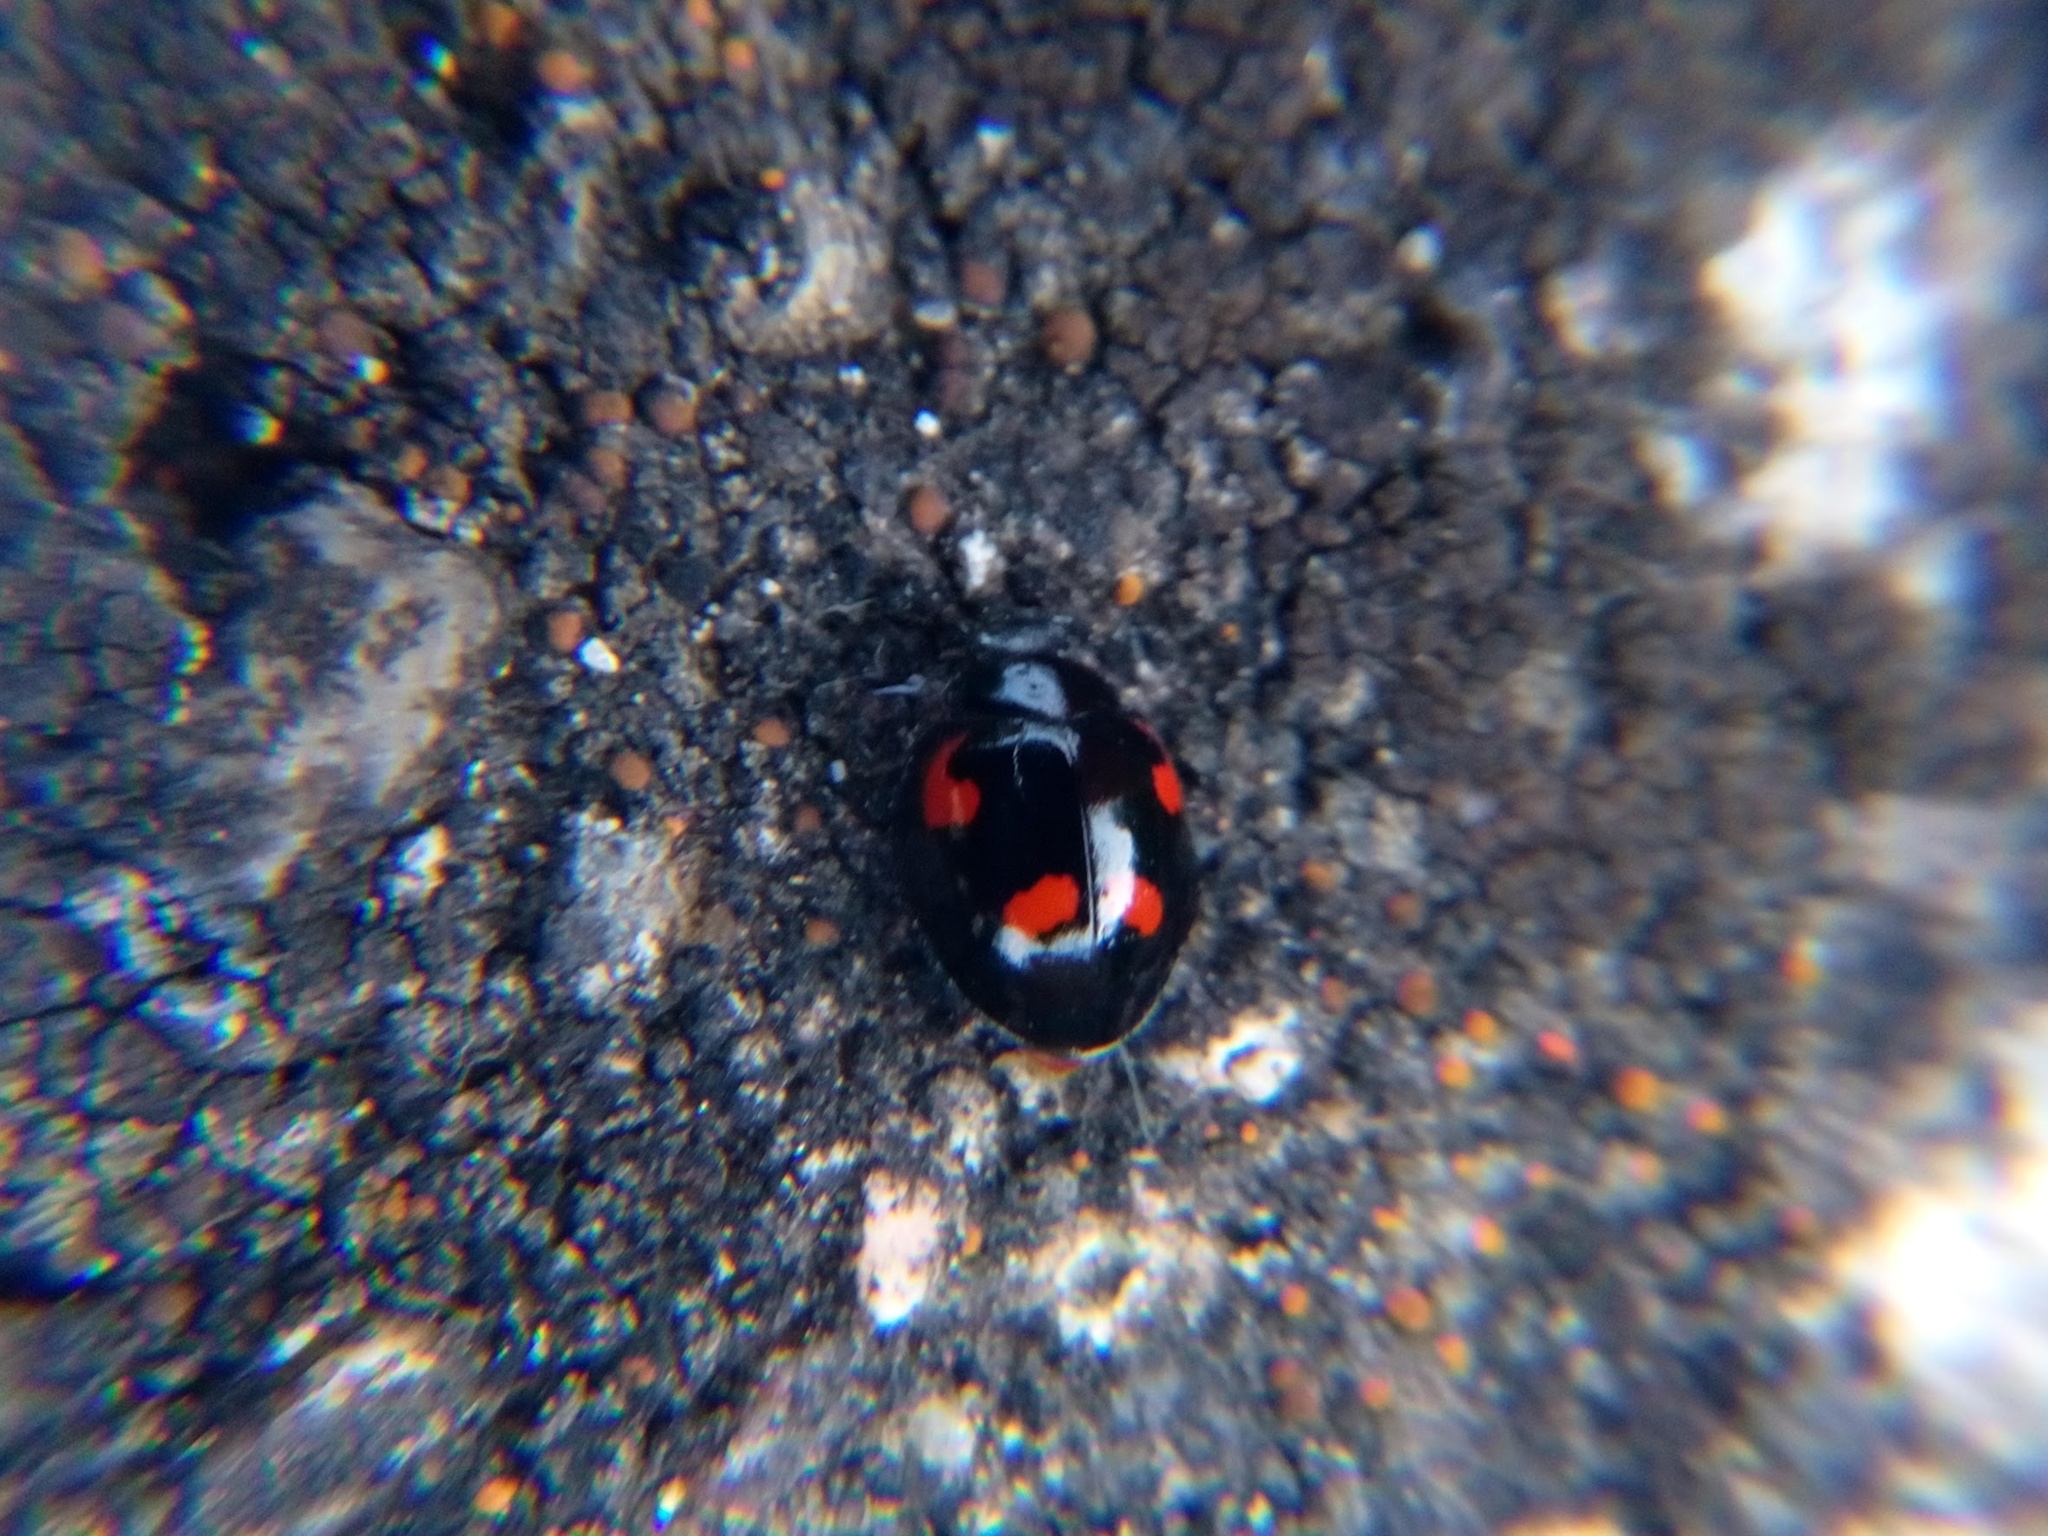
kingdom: Animalia
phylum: Arthropoda
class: Insecta
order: Coleoptera
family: Coccinellidae
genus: Brumus
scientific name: Brumus quadripustulatus
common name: Ladybird beetle
